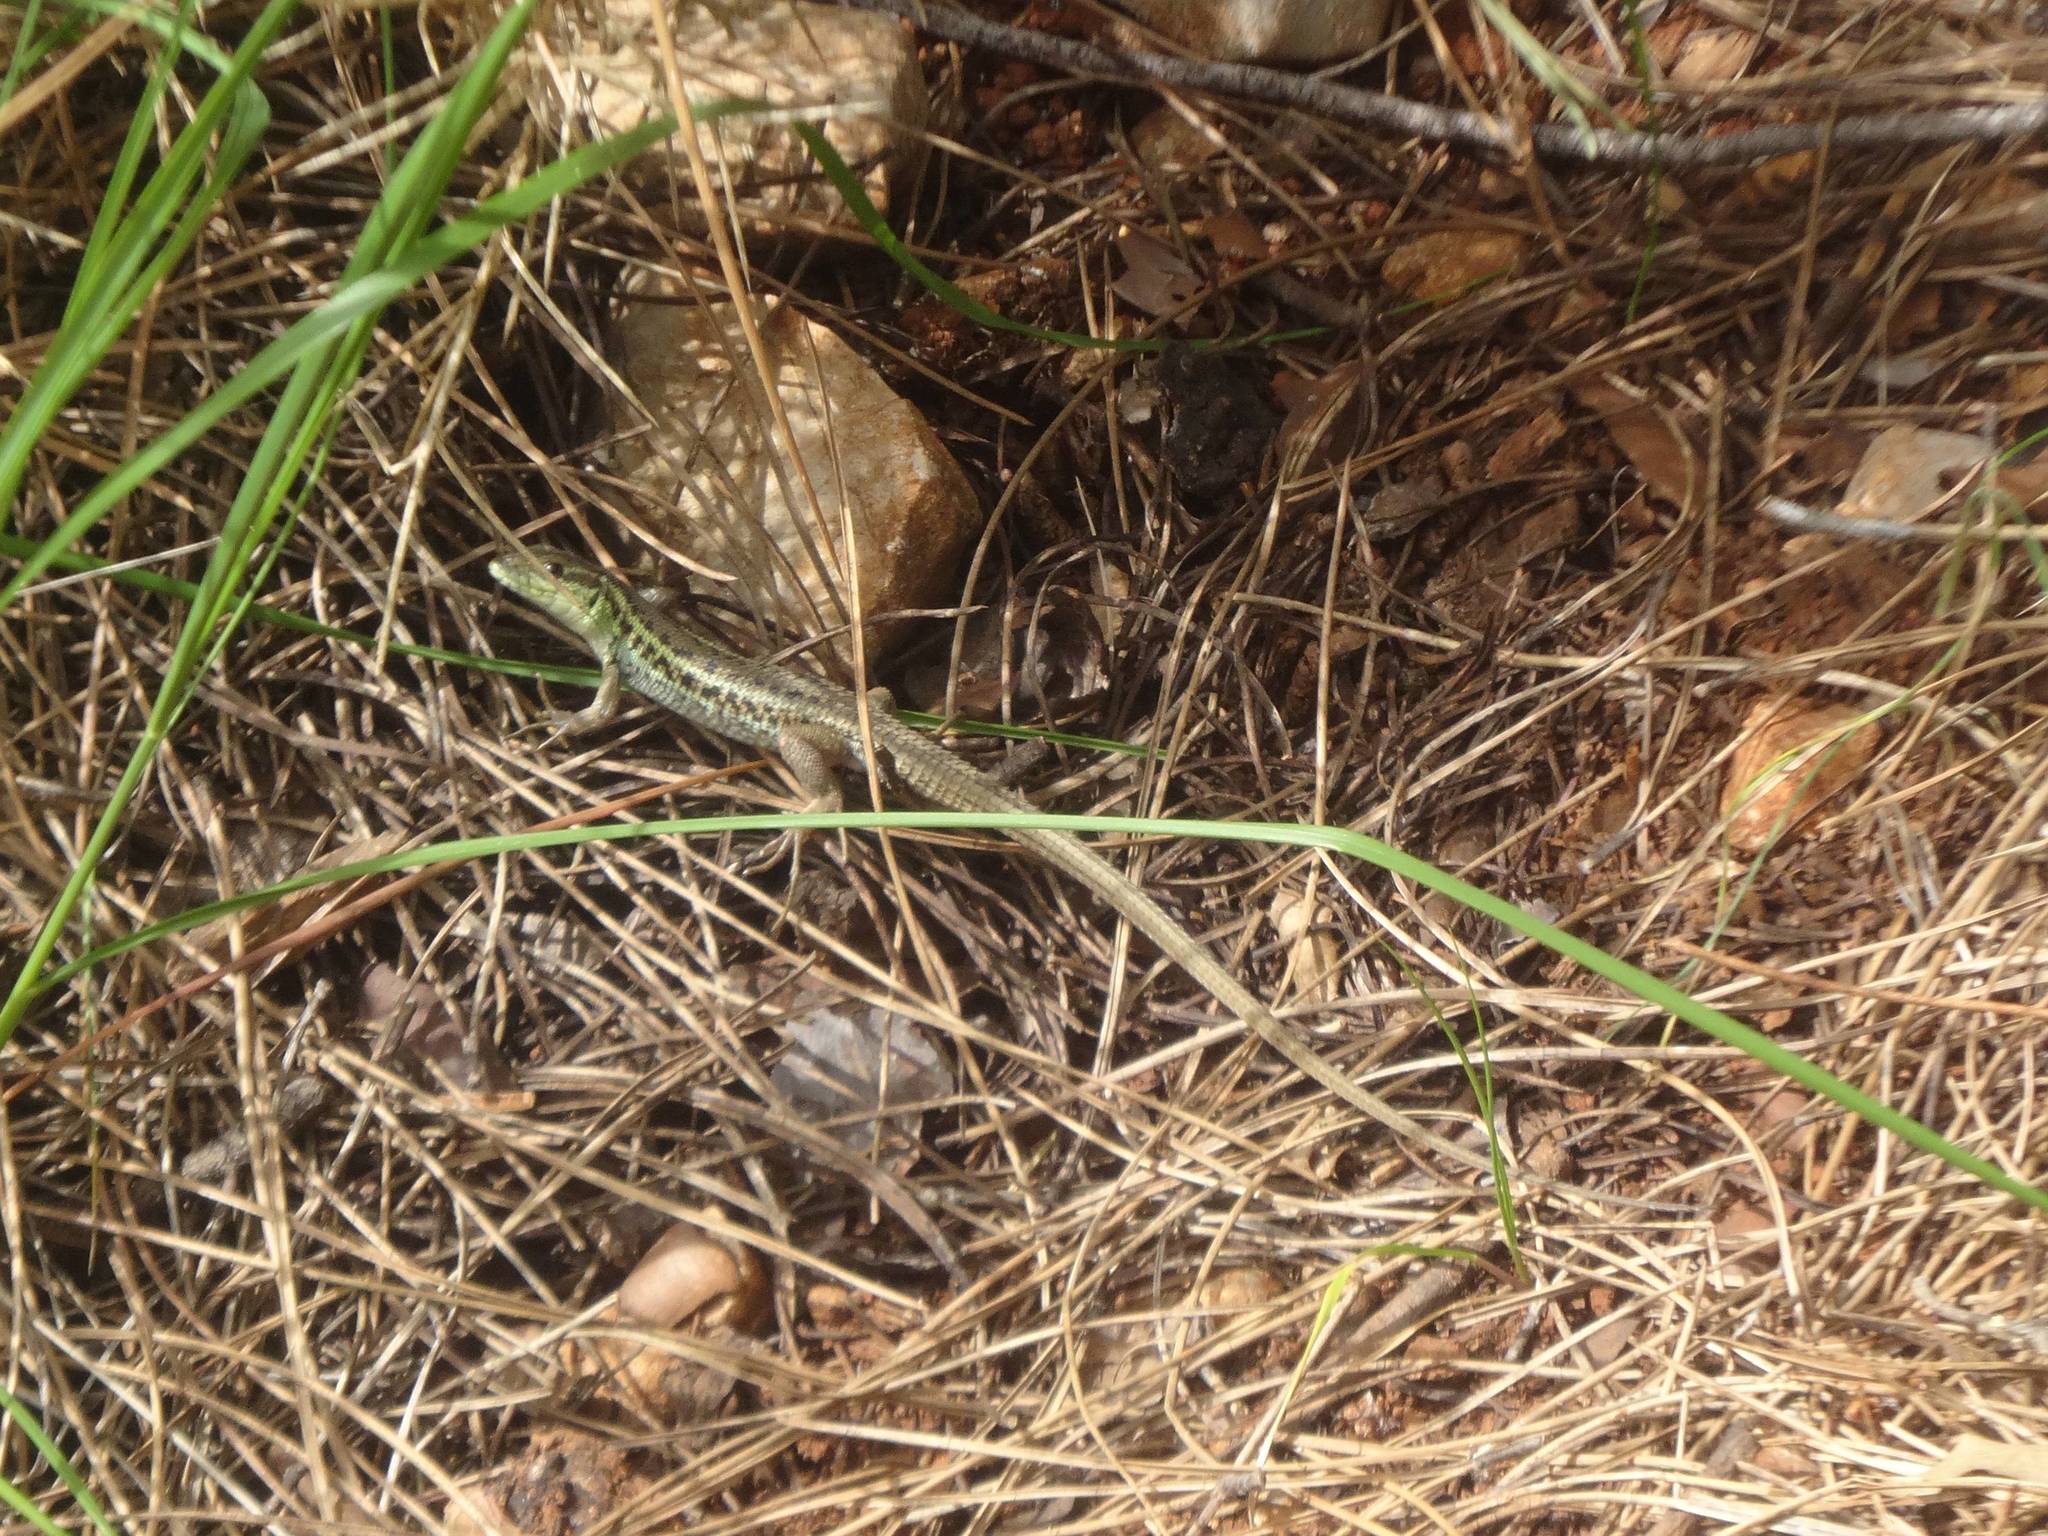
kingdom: Animalia
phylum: Chordata
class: Squamata
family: Lacertidae
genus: Ophisops
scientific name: Ophisops elegans
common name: Snake-eyed lizard
